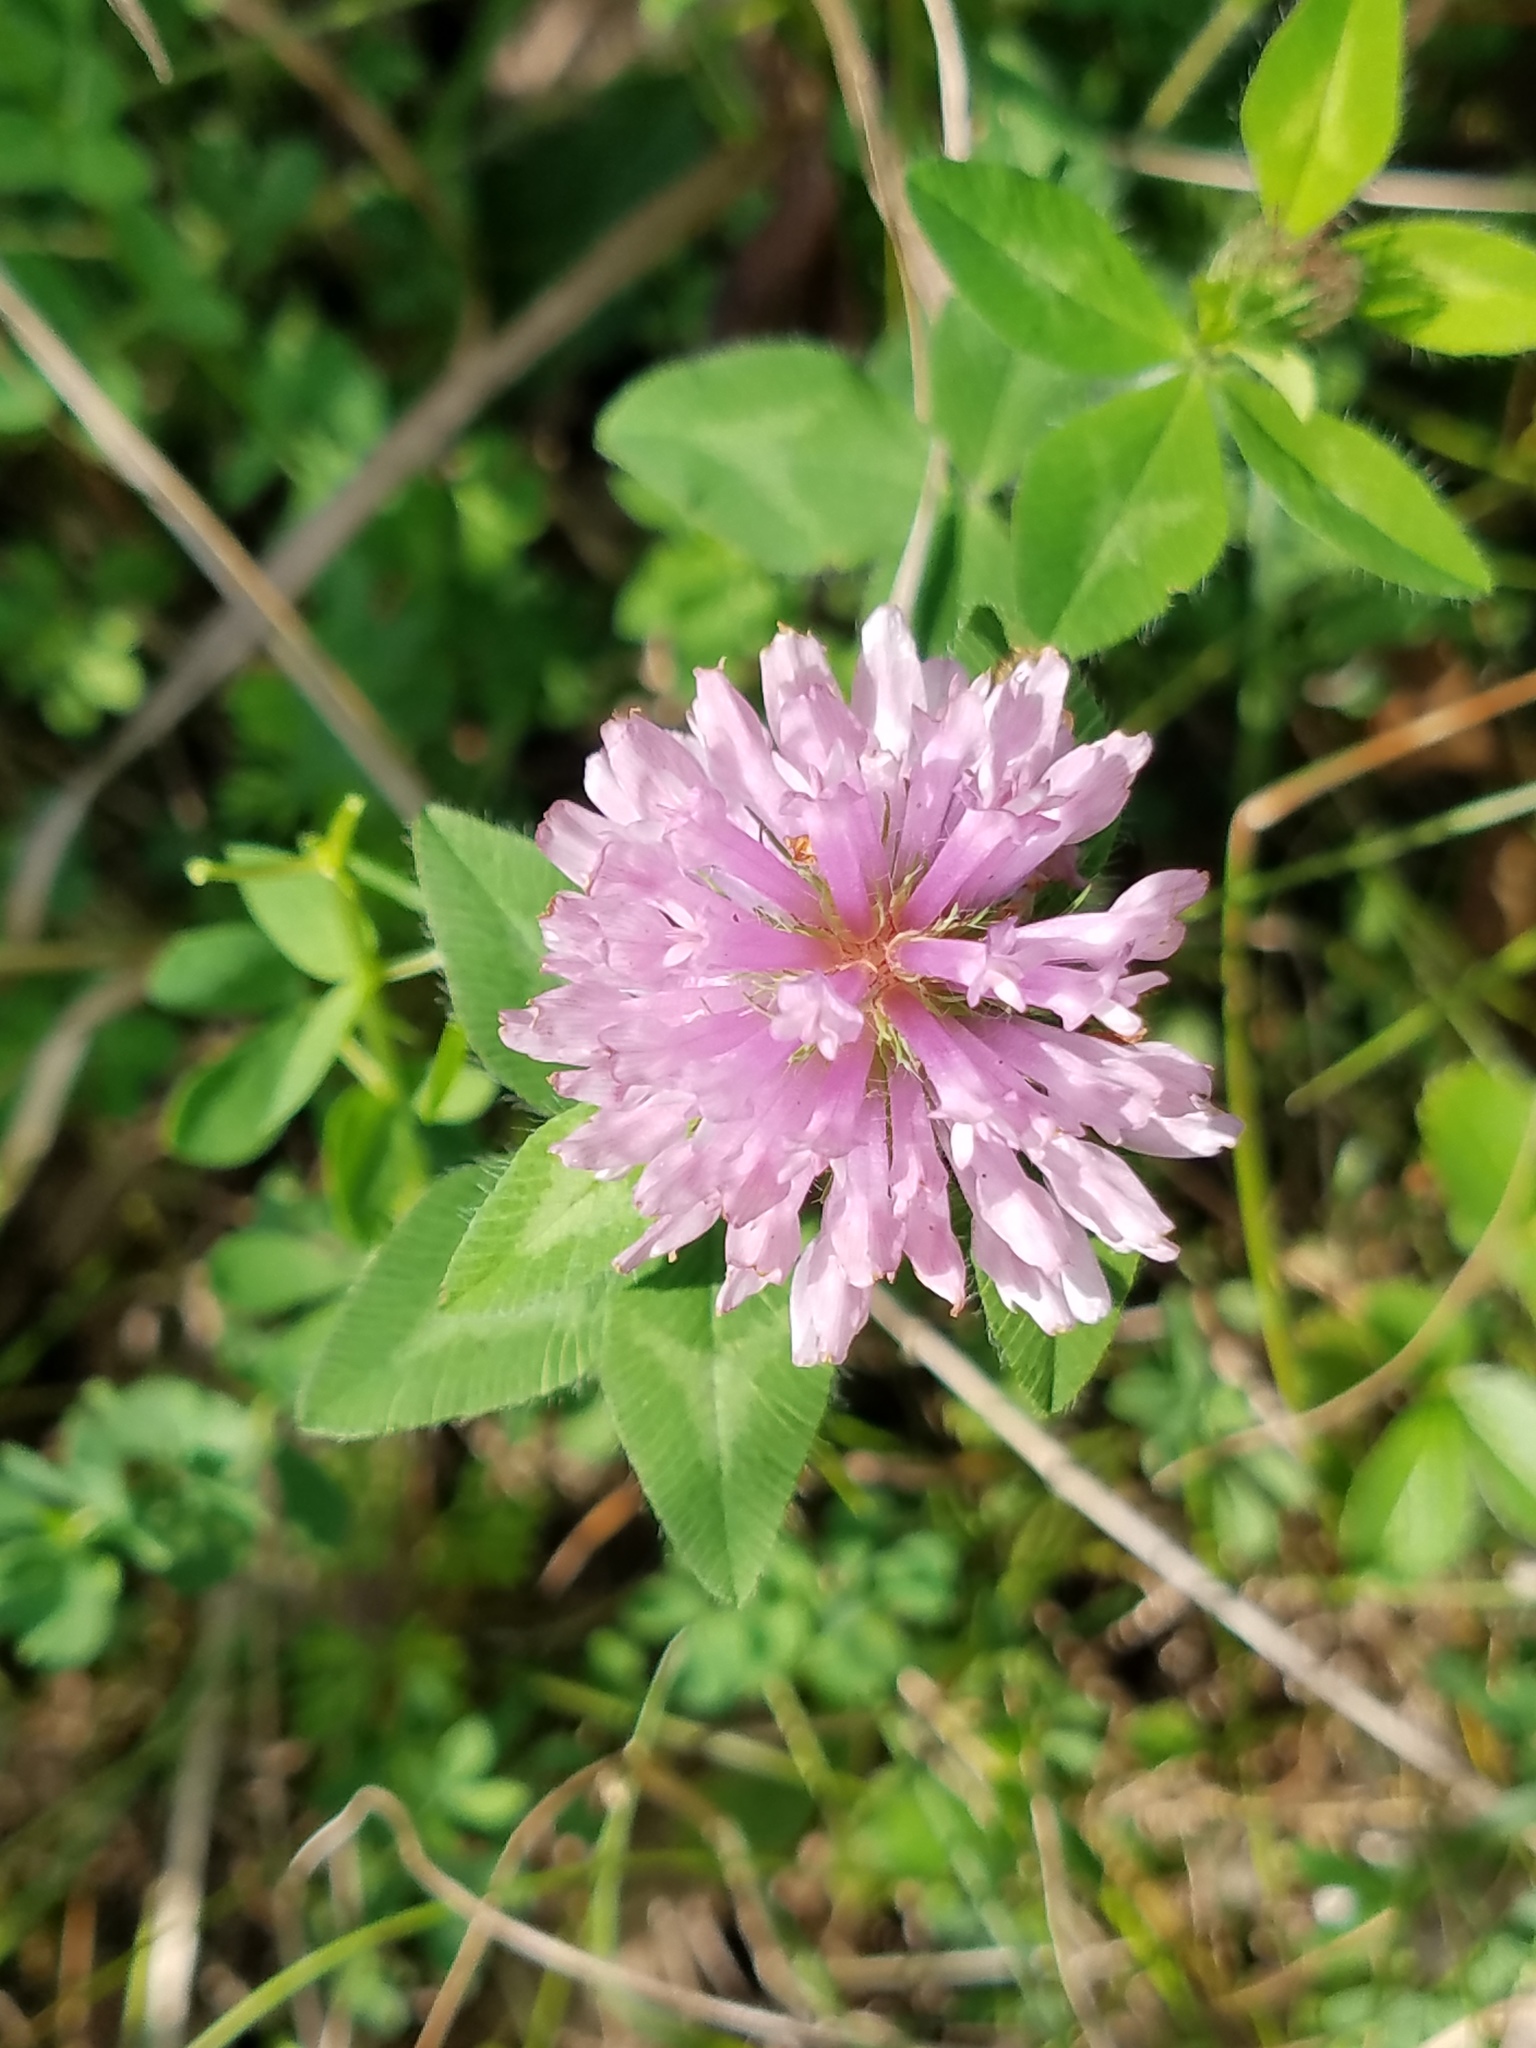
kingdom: Plantae
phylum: Tracheophyta
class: Magnoliopsida
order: Fabales
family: Fabaceae
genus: Trifolium
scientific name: Trifolium pratense
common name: Red clover
